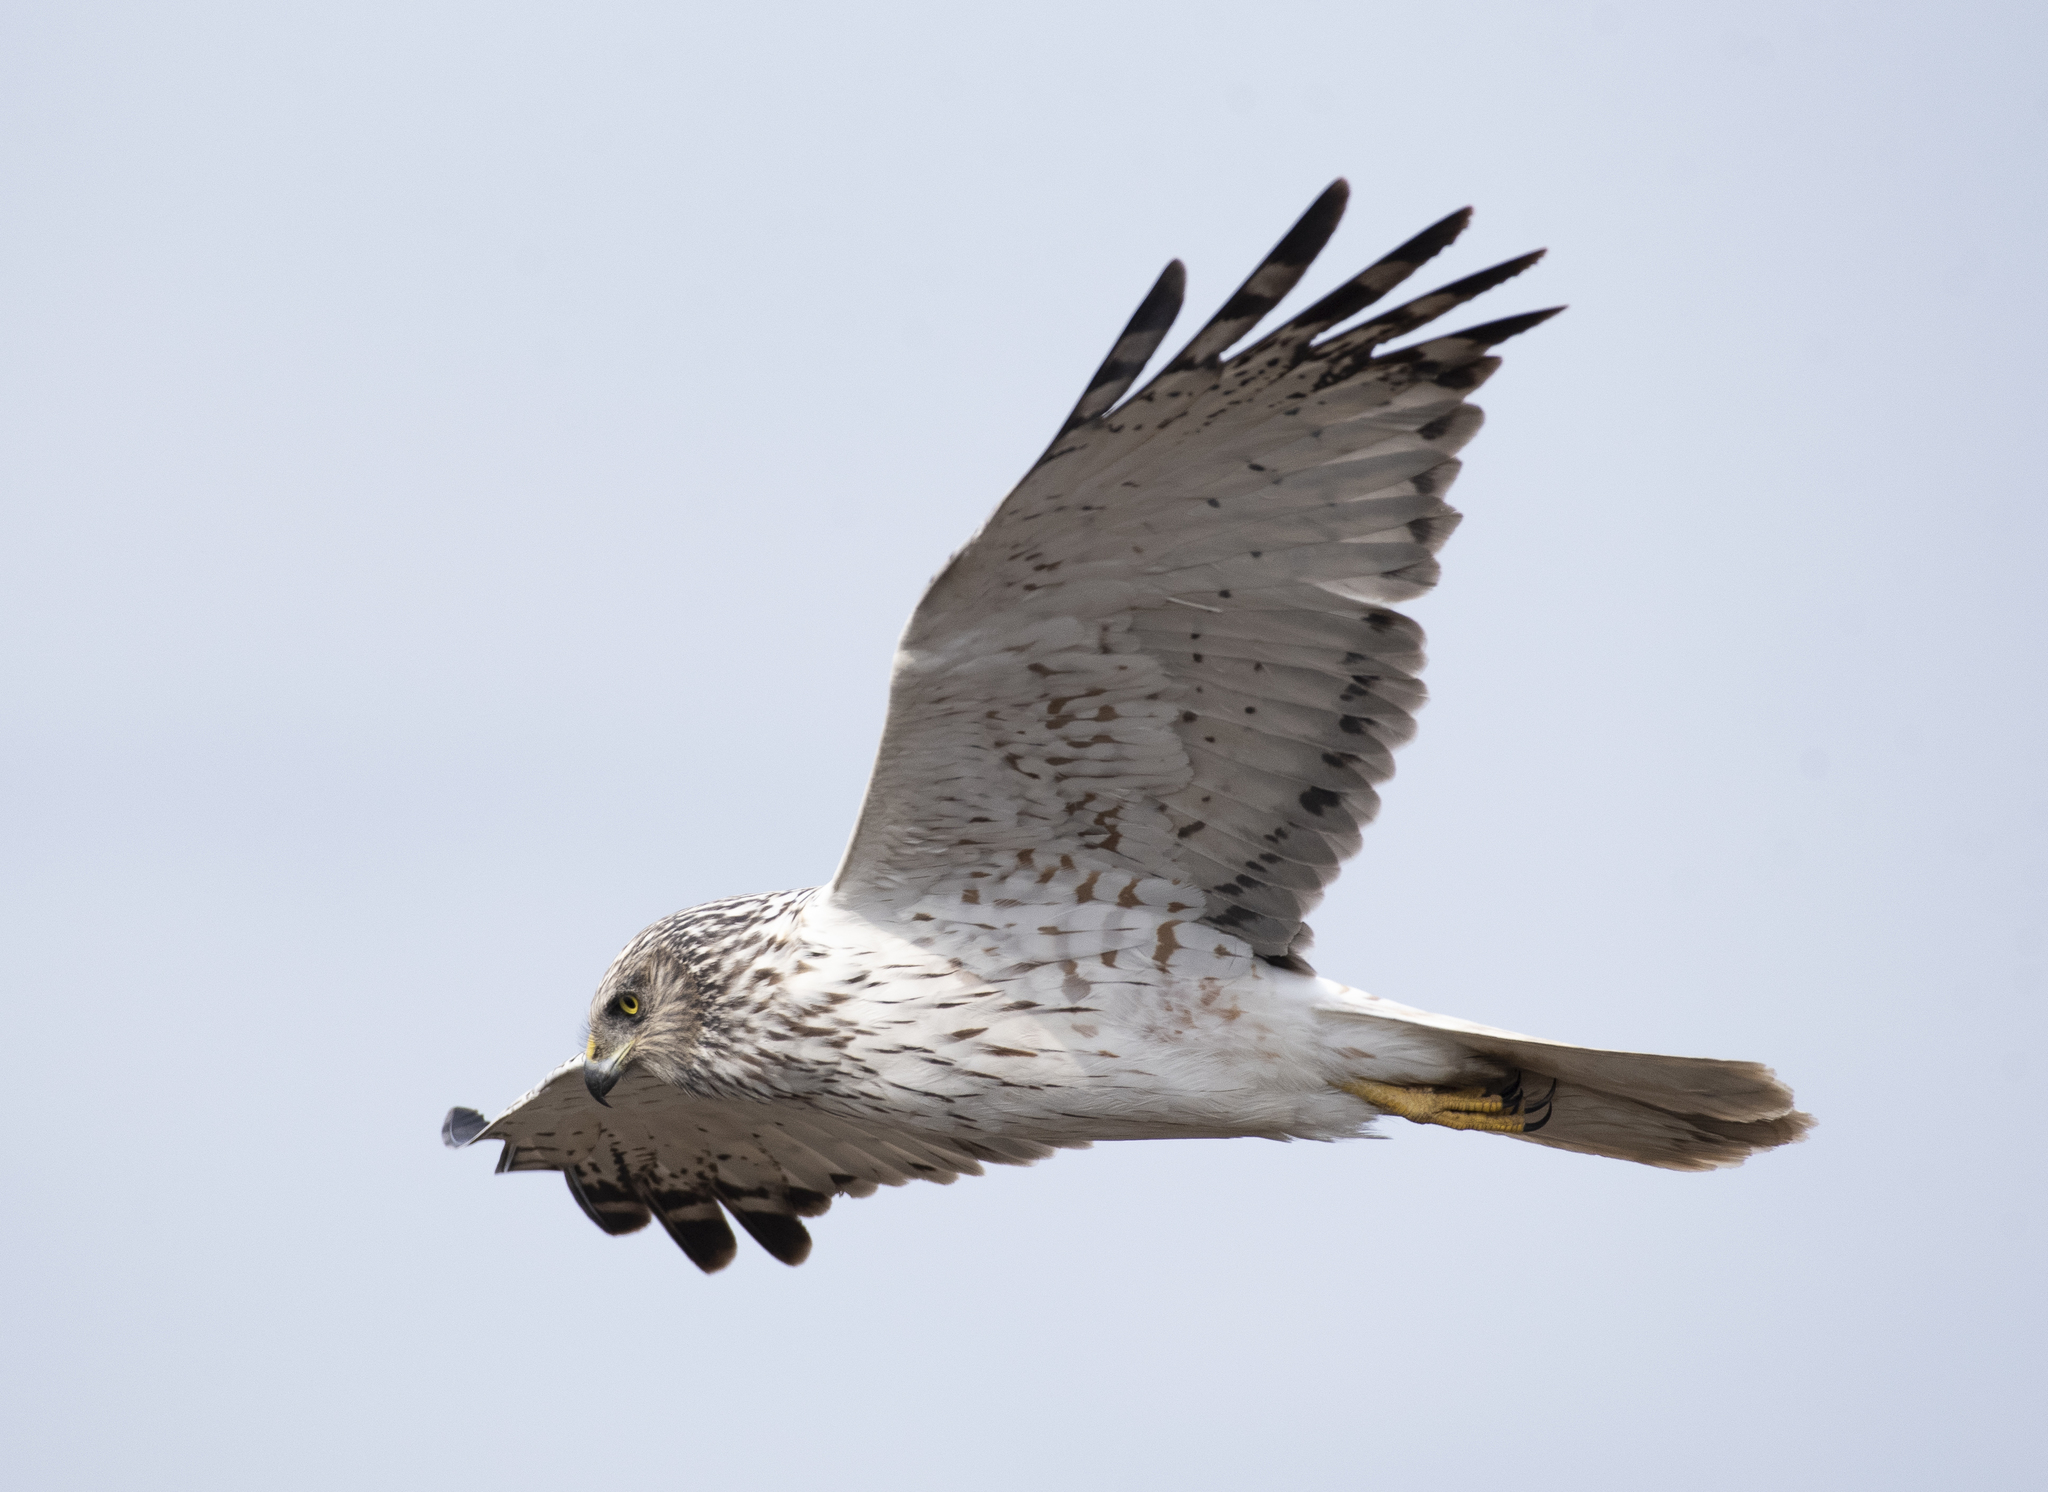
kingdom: Animalia
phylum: Chordata
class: Aves
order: Accipitriformes
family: Accipitridae
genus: Circus
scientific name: Circus spilonotus
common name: Eastern marsh-harrier
